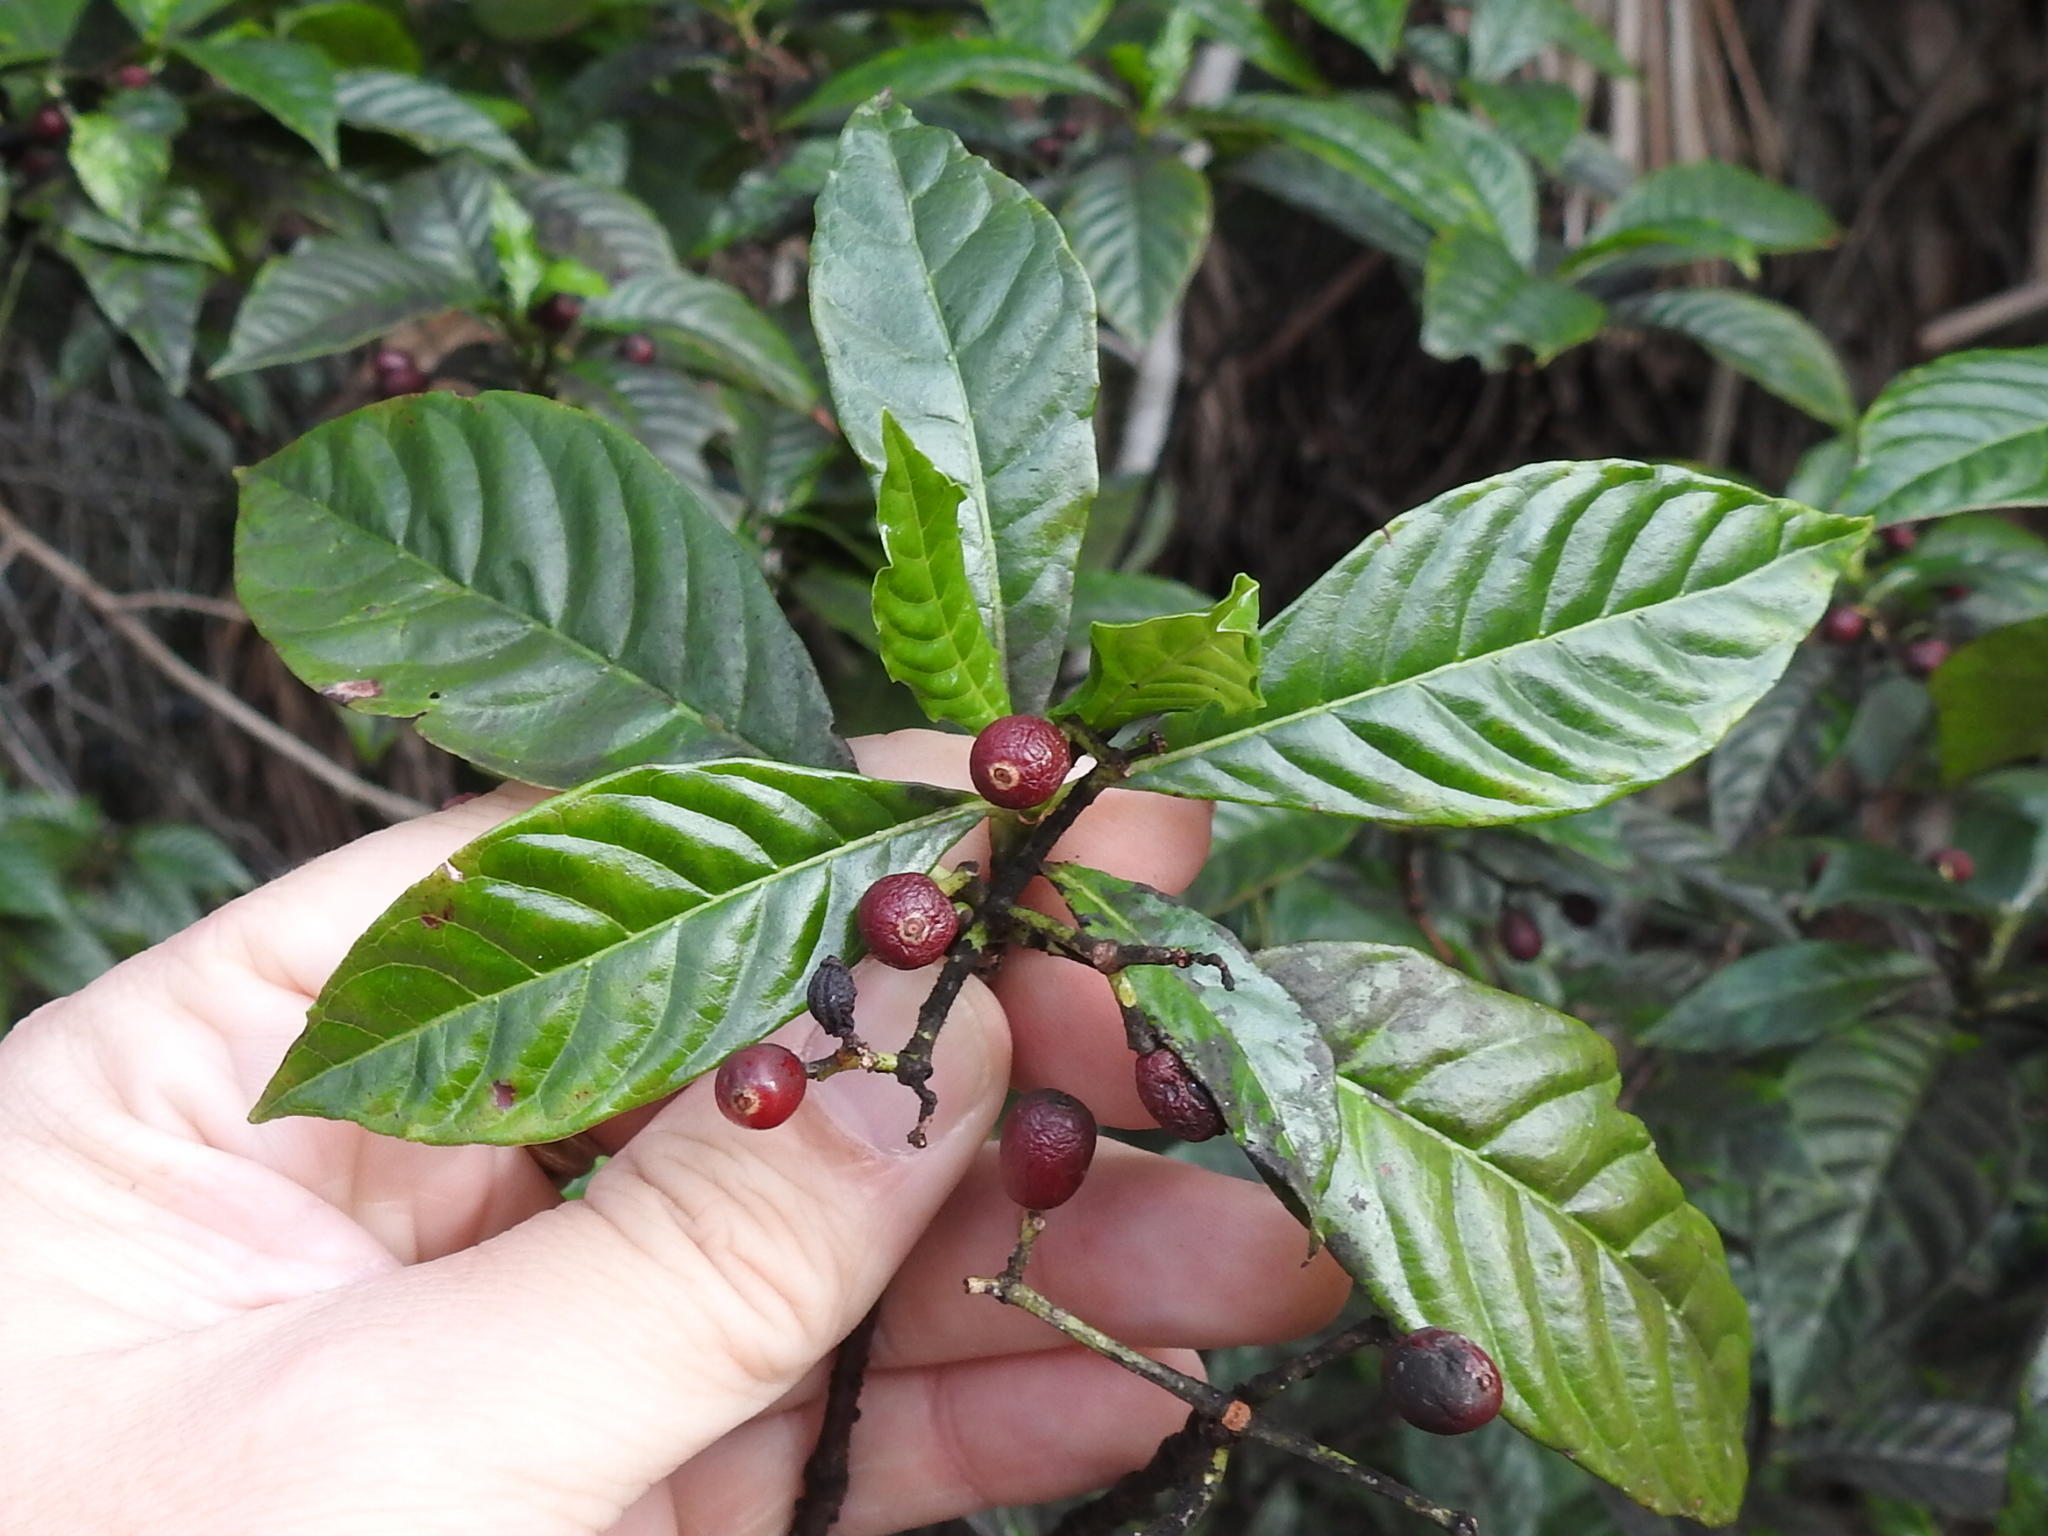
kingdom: Plantae
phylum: Tracheophyta
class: Magnoliopsida
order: Gentianales
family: Rubiaceae
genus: Psychotria
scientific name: Psychotria nervosa
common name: Bastard cankerberry
